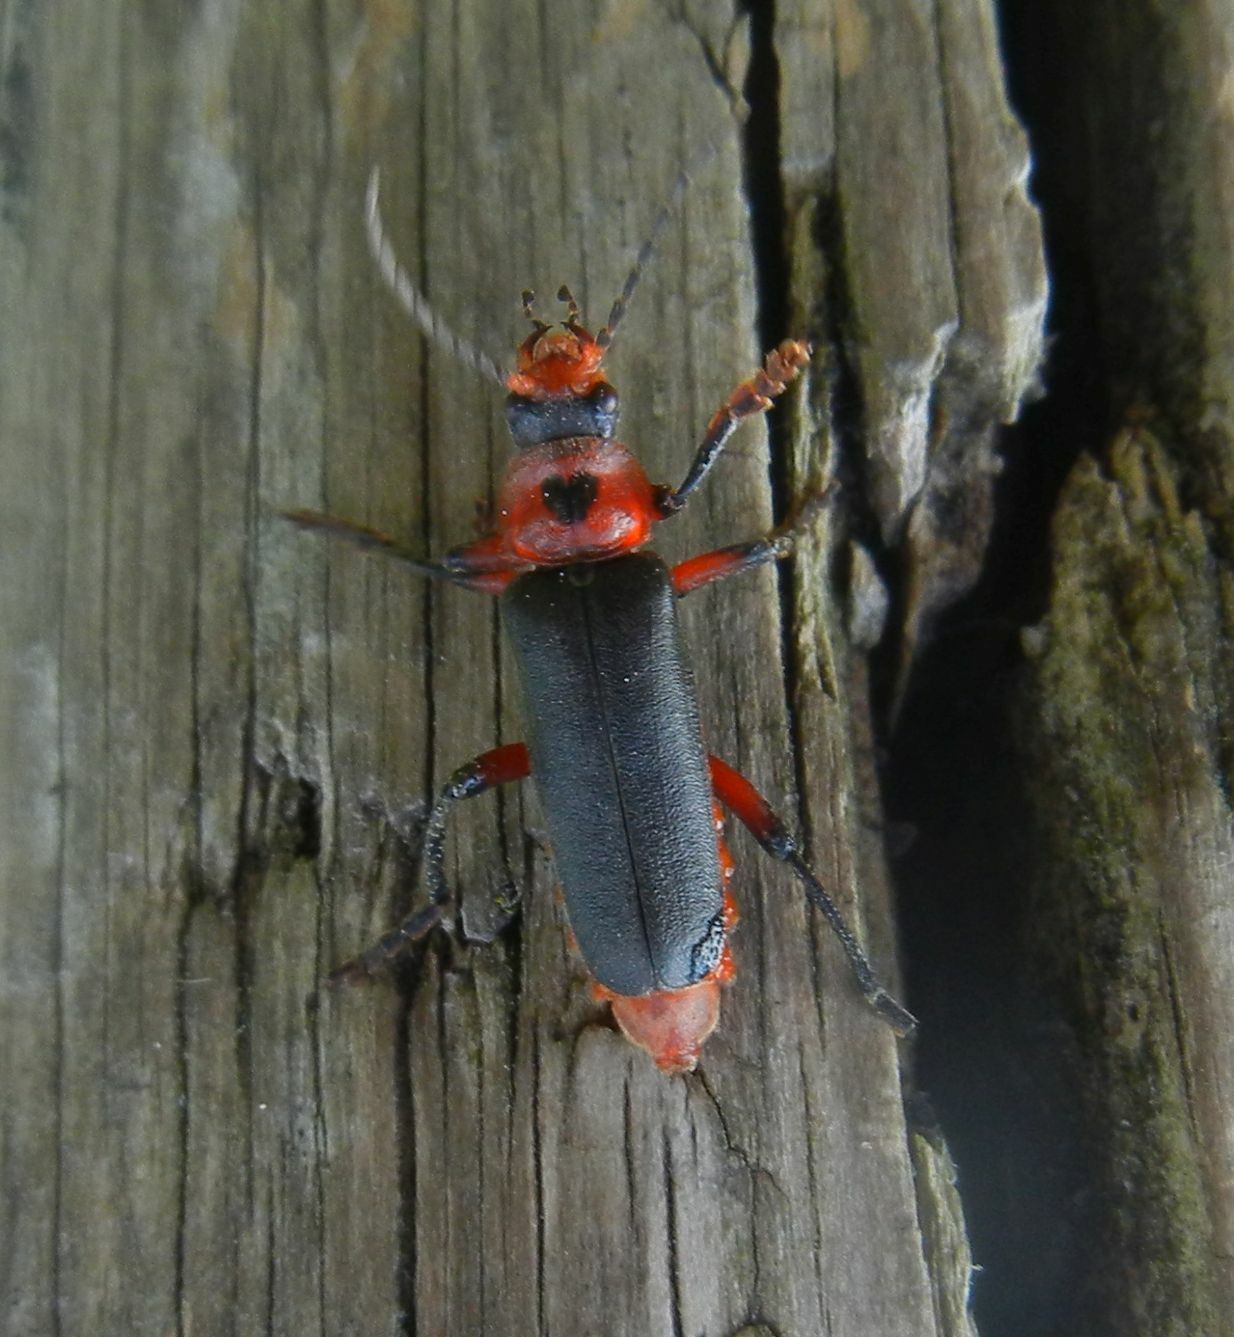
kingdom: Animalia
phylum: Arthropoda
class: Insecta
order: Coleoptera
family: Cantharidae
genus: Cantharis
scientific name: Cantharis rustica
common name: Soldier beetle
